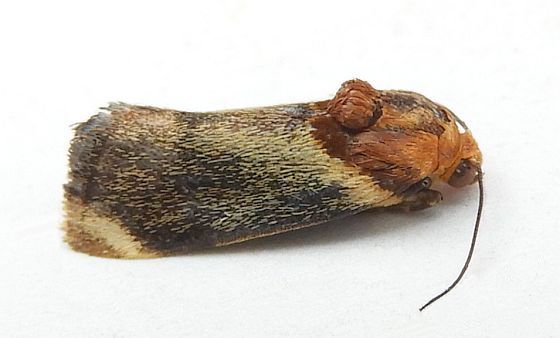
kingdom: Animalia
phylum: Arthropoda
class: Insecta
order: Lepidoptera
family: Noctuidae
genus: Spragueia
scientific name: Spragueia apicalis
